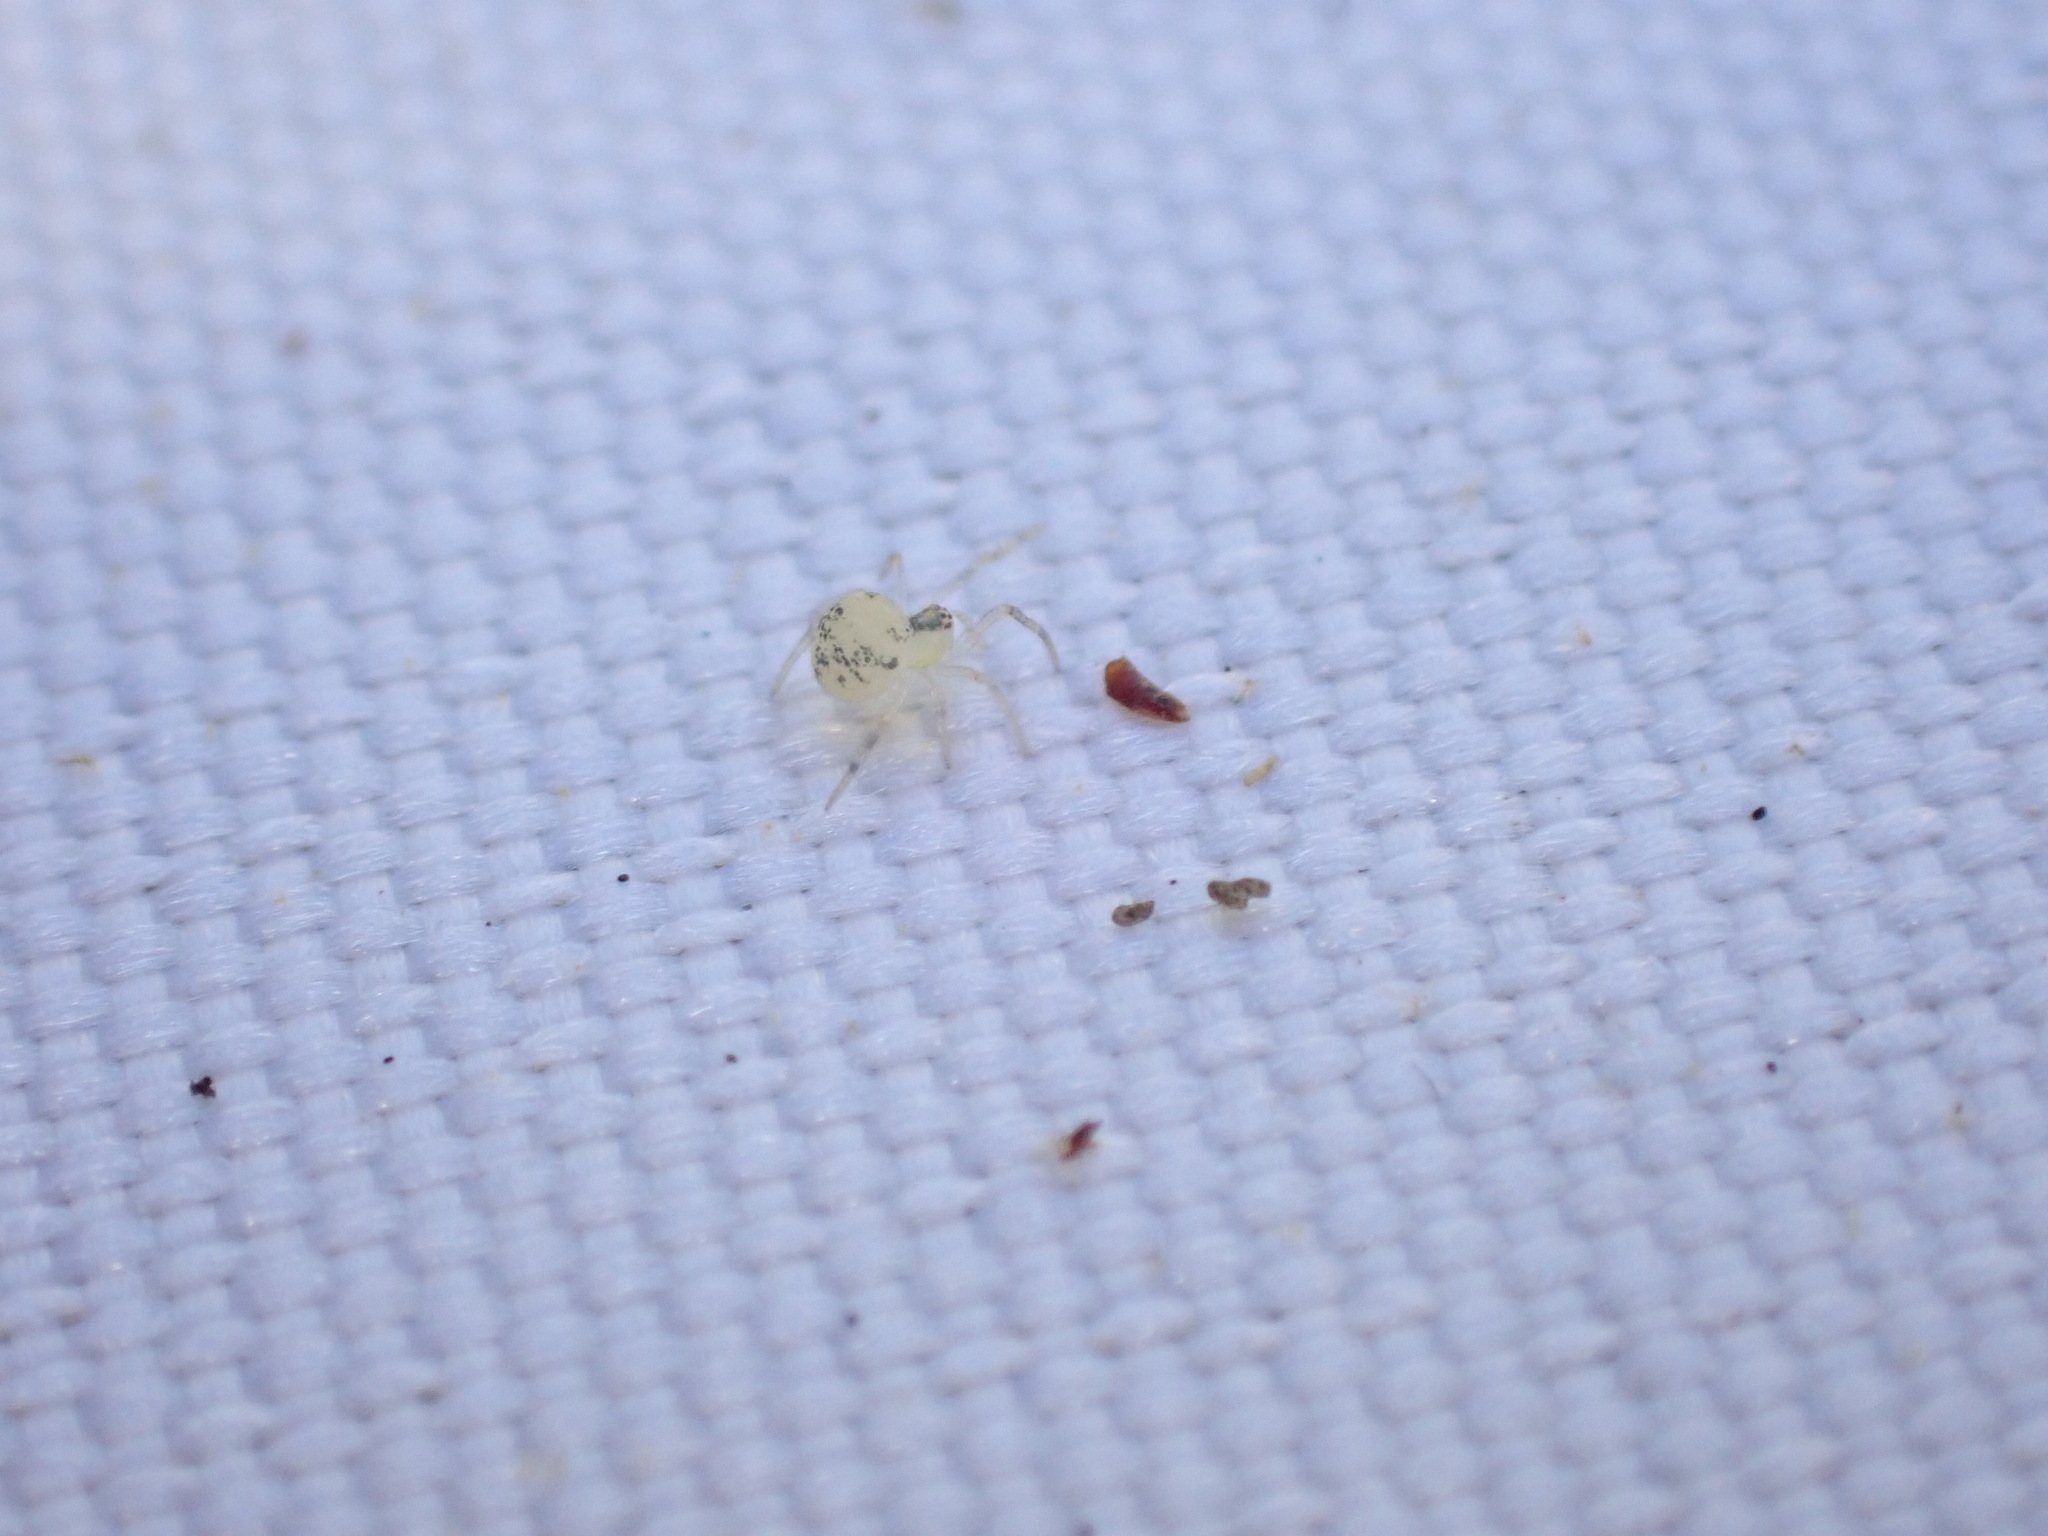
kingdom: Animalia
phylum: Arthropoda
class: Arachnida
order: Araneae
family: Theridiidae
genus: Paidiscura
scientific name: Paidiscura pallens
